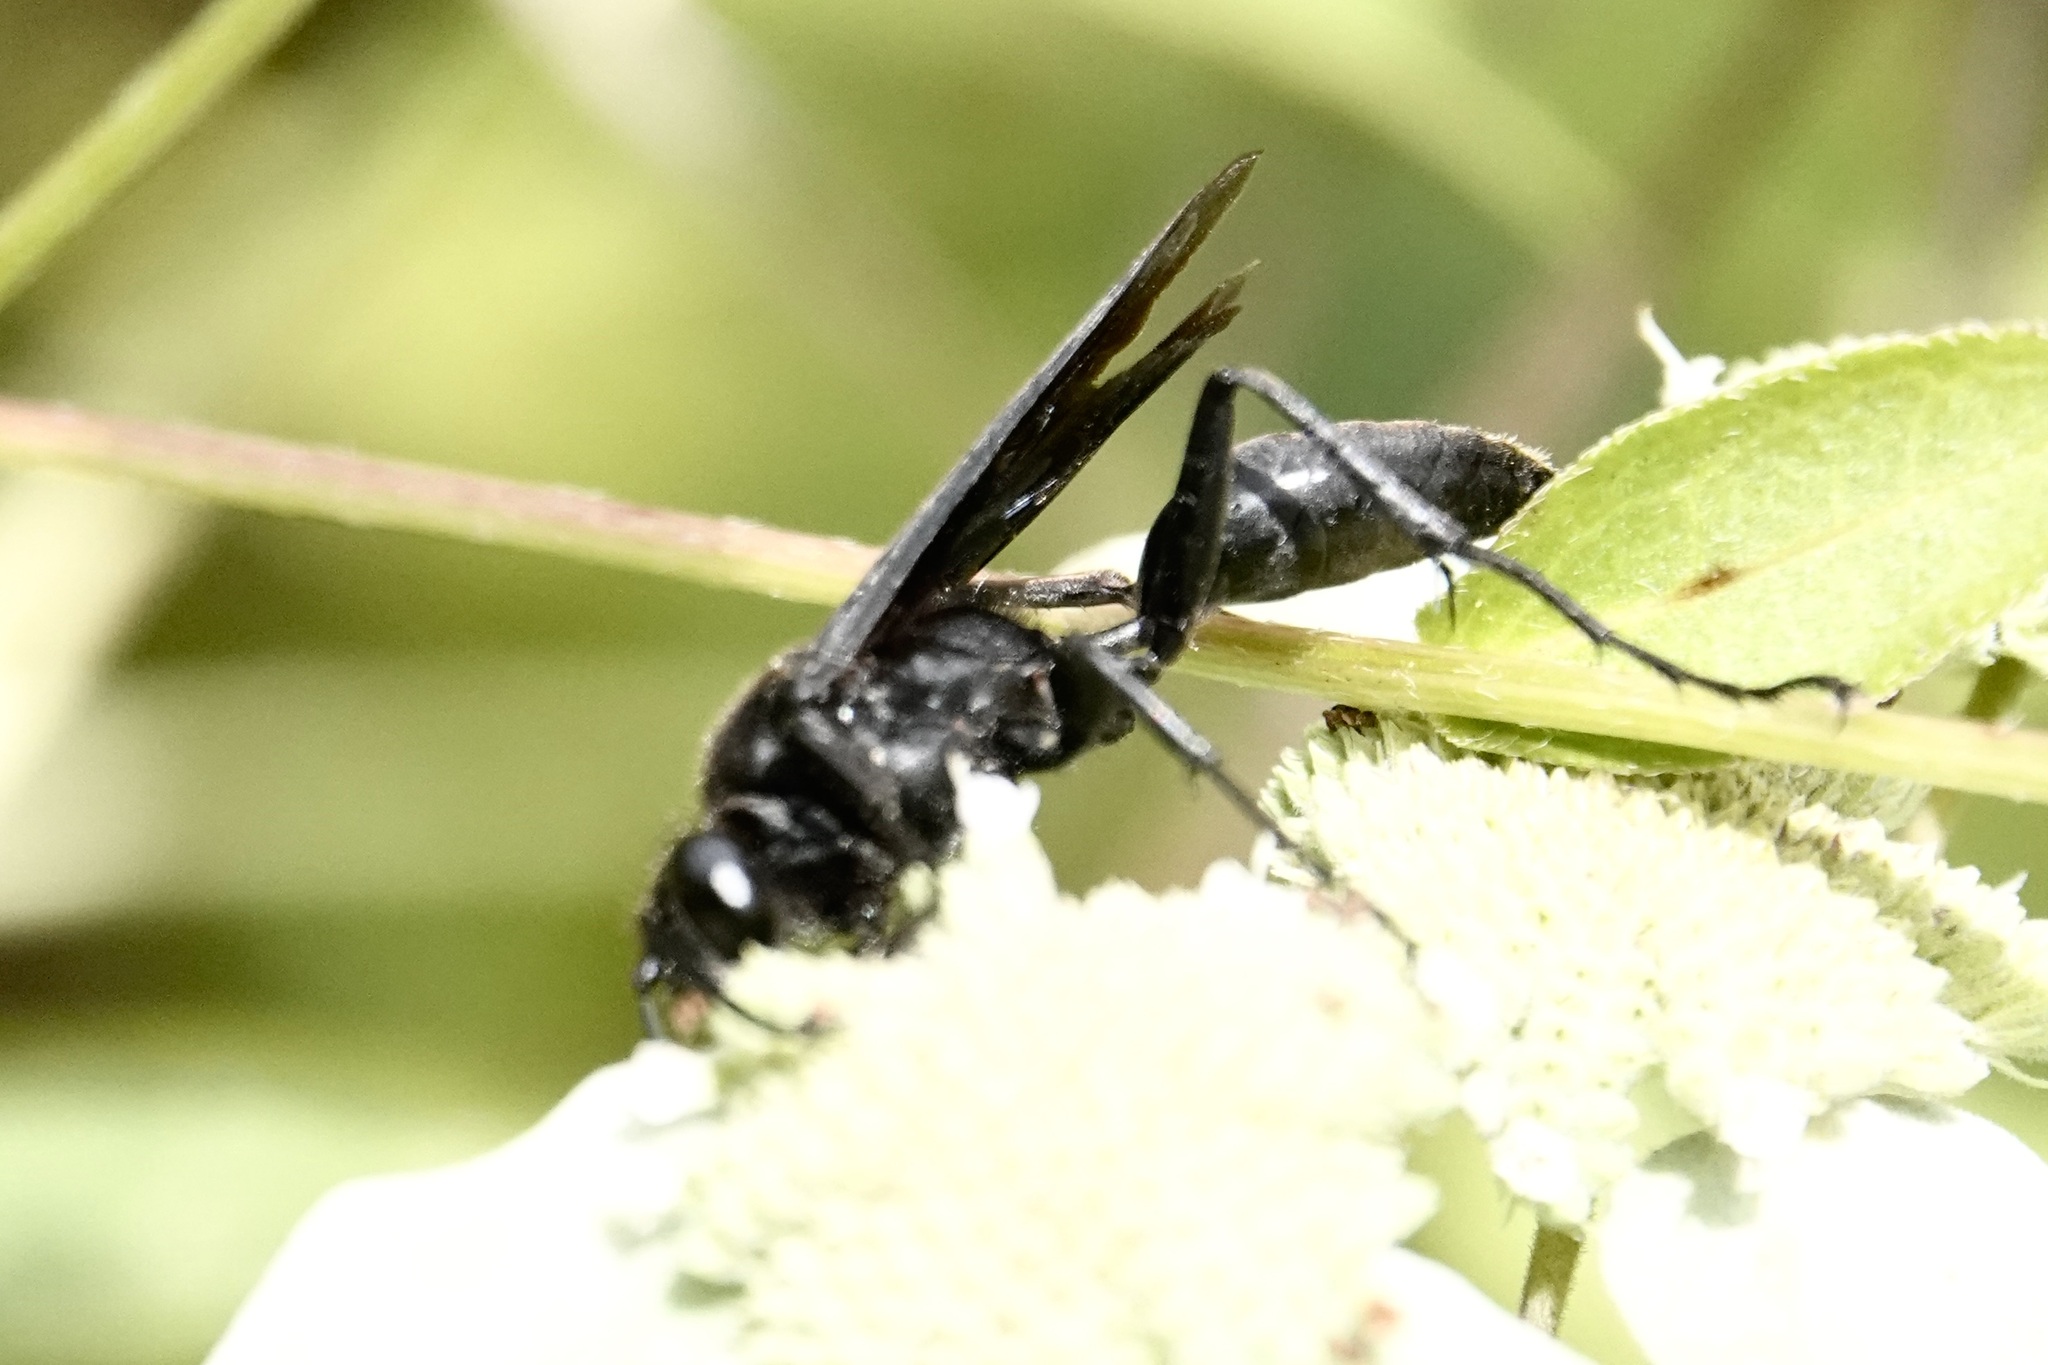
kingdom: Animalia
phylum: Arthropoda
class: Insecta
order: Hymenoptera
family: Sphecidae
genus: Sphex
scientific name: Sphex pensylvanicus
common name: Great black digger wasp
